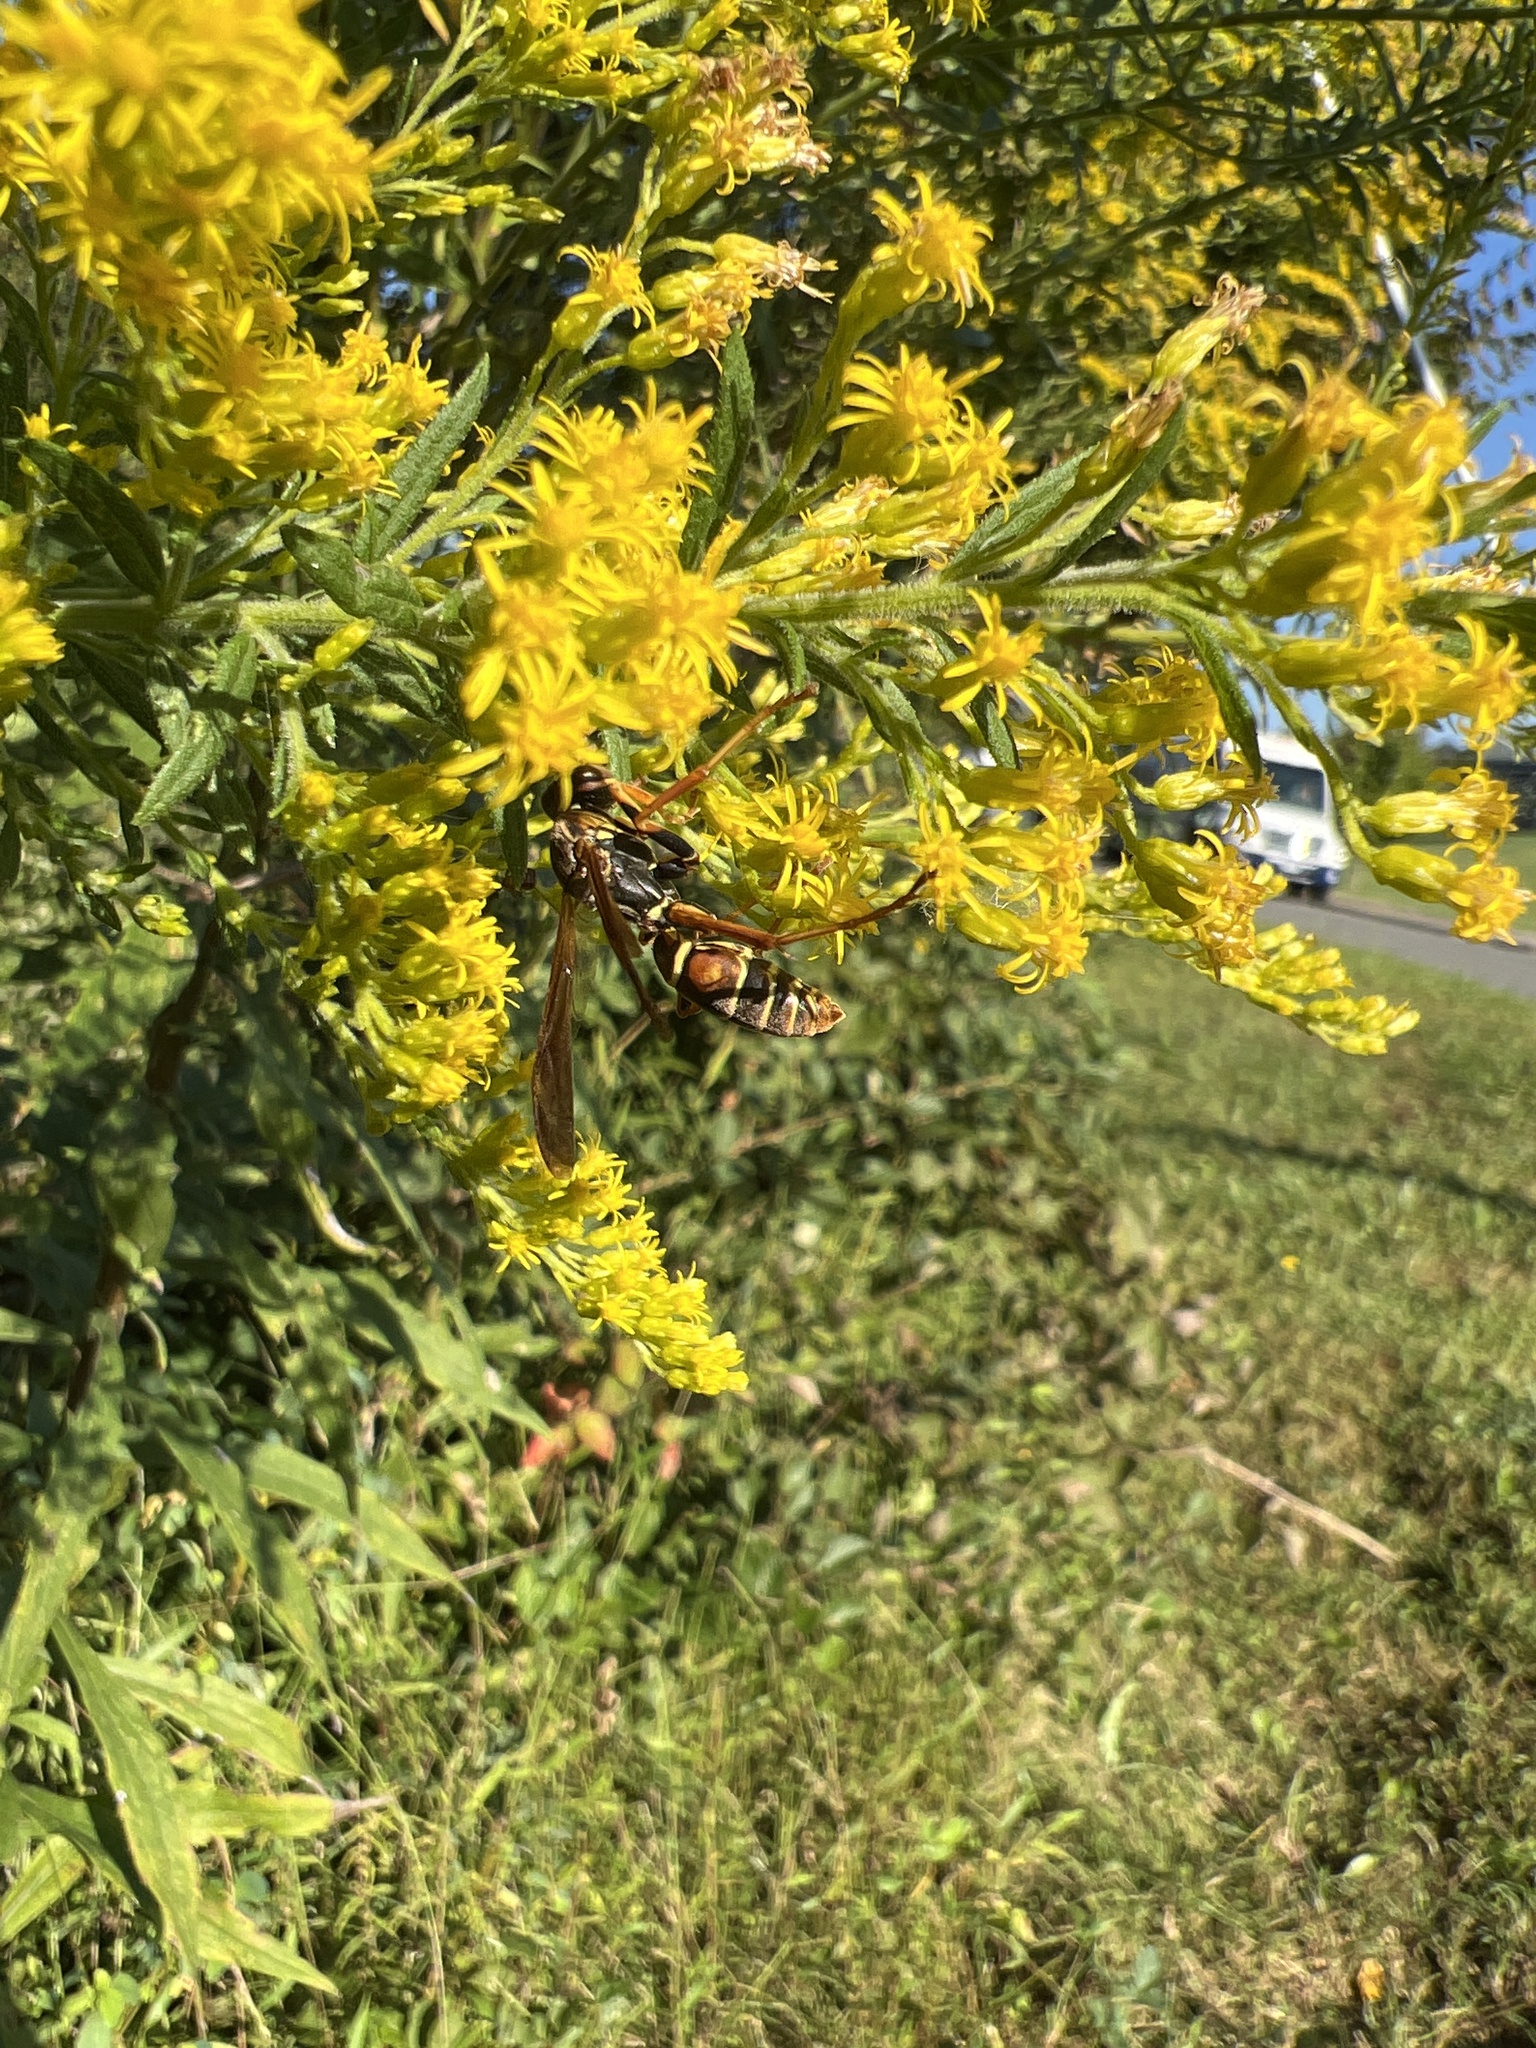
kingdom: Animalia
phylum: Arthropoda
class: Insecta
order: Hymenoptera
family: Eumenidae
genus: Polistes
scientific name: Polistes fuscatus
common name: Dark paper wasp
